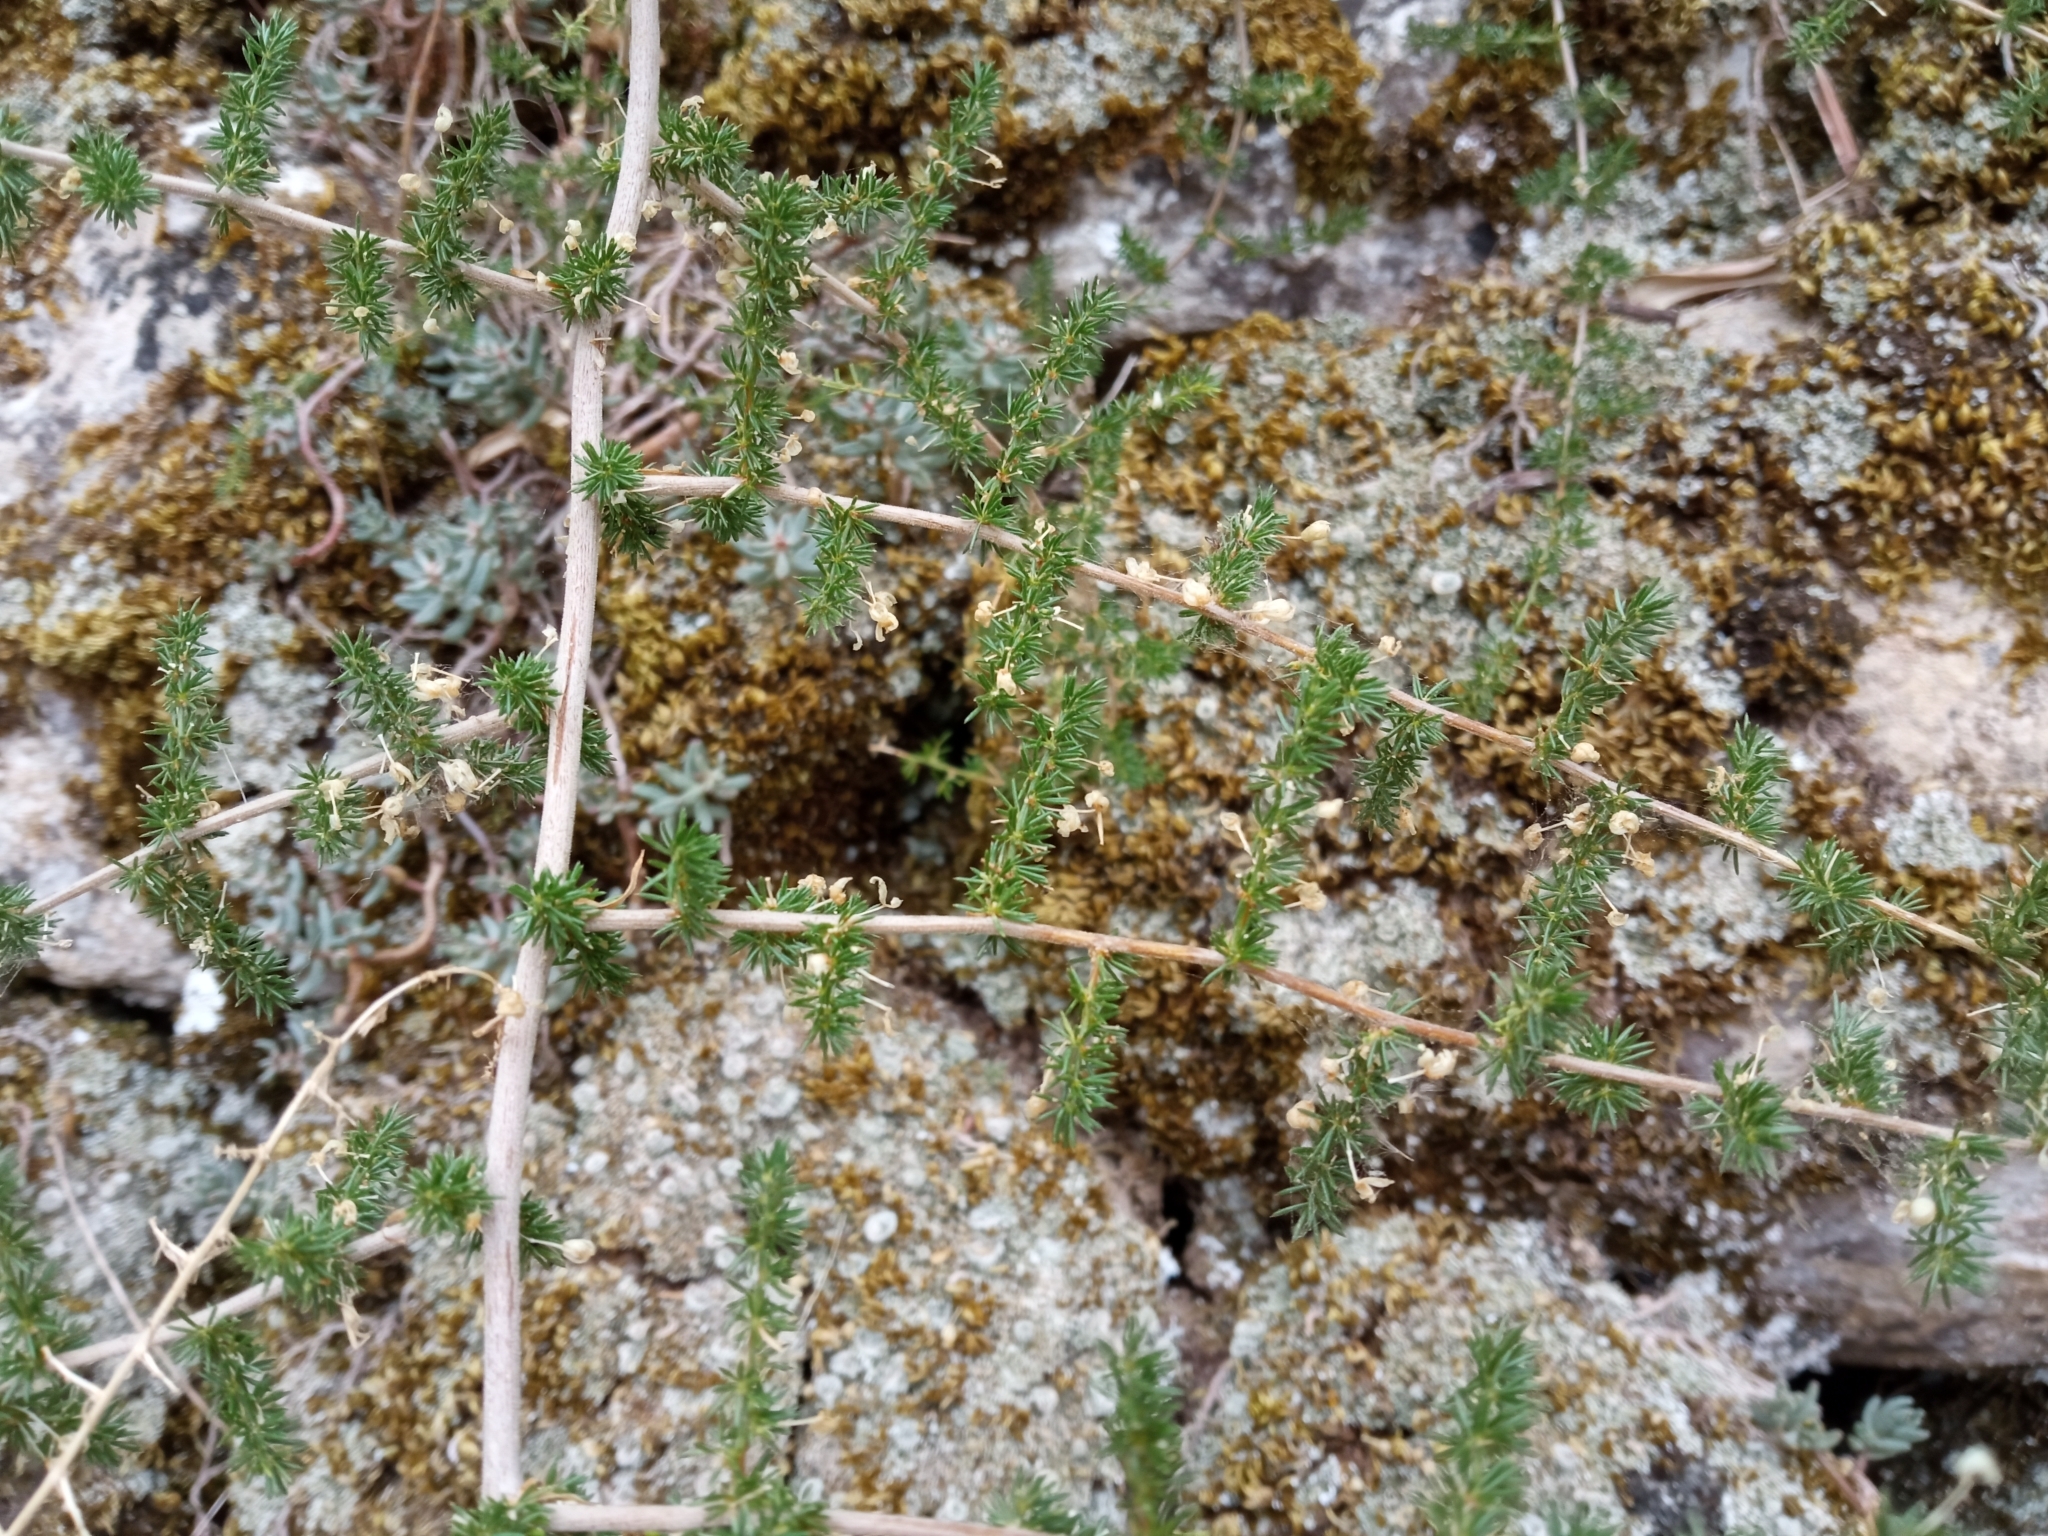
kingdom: Plantae
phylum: Tracheophyta
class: Liliopsida
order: Asparagales
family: Asparagaceae
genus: Asparagus
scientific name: Asparagus acutifolius
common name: Wild asparagus
